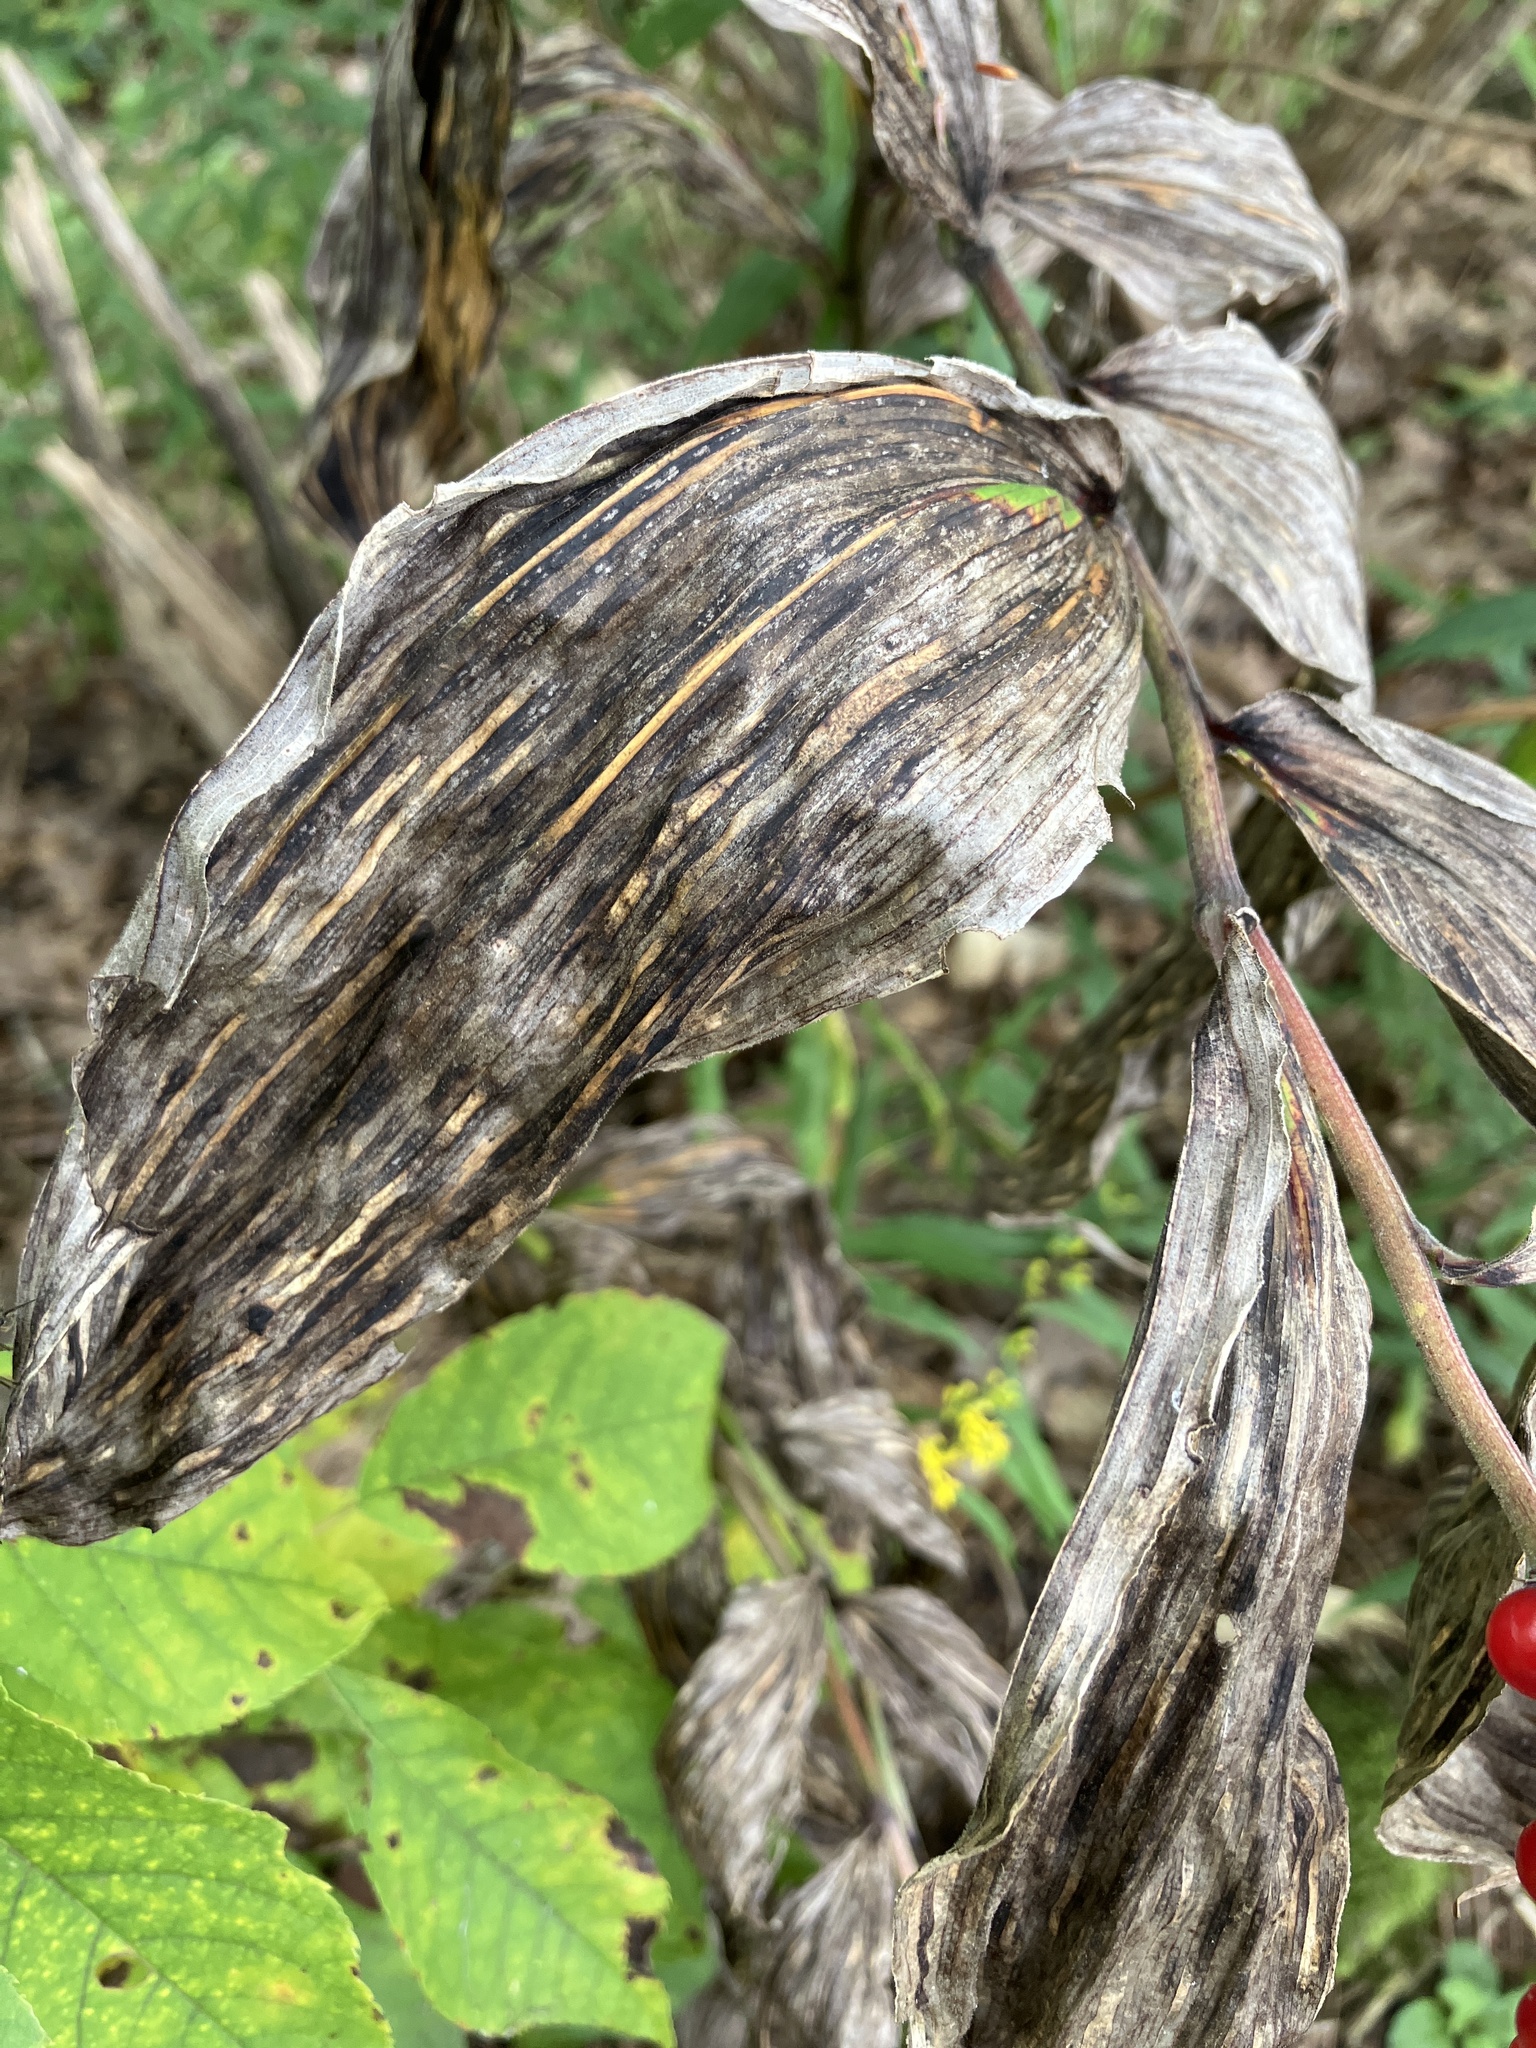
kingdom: Plantae
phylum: Tracheophyta
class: Liliopsida
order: Asparagales
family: Asparagaceae
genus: Maianthemum
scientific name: Maianthemum racemosum
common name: False spikenard
